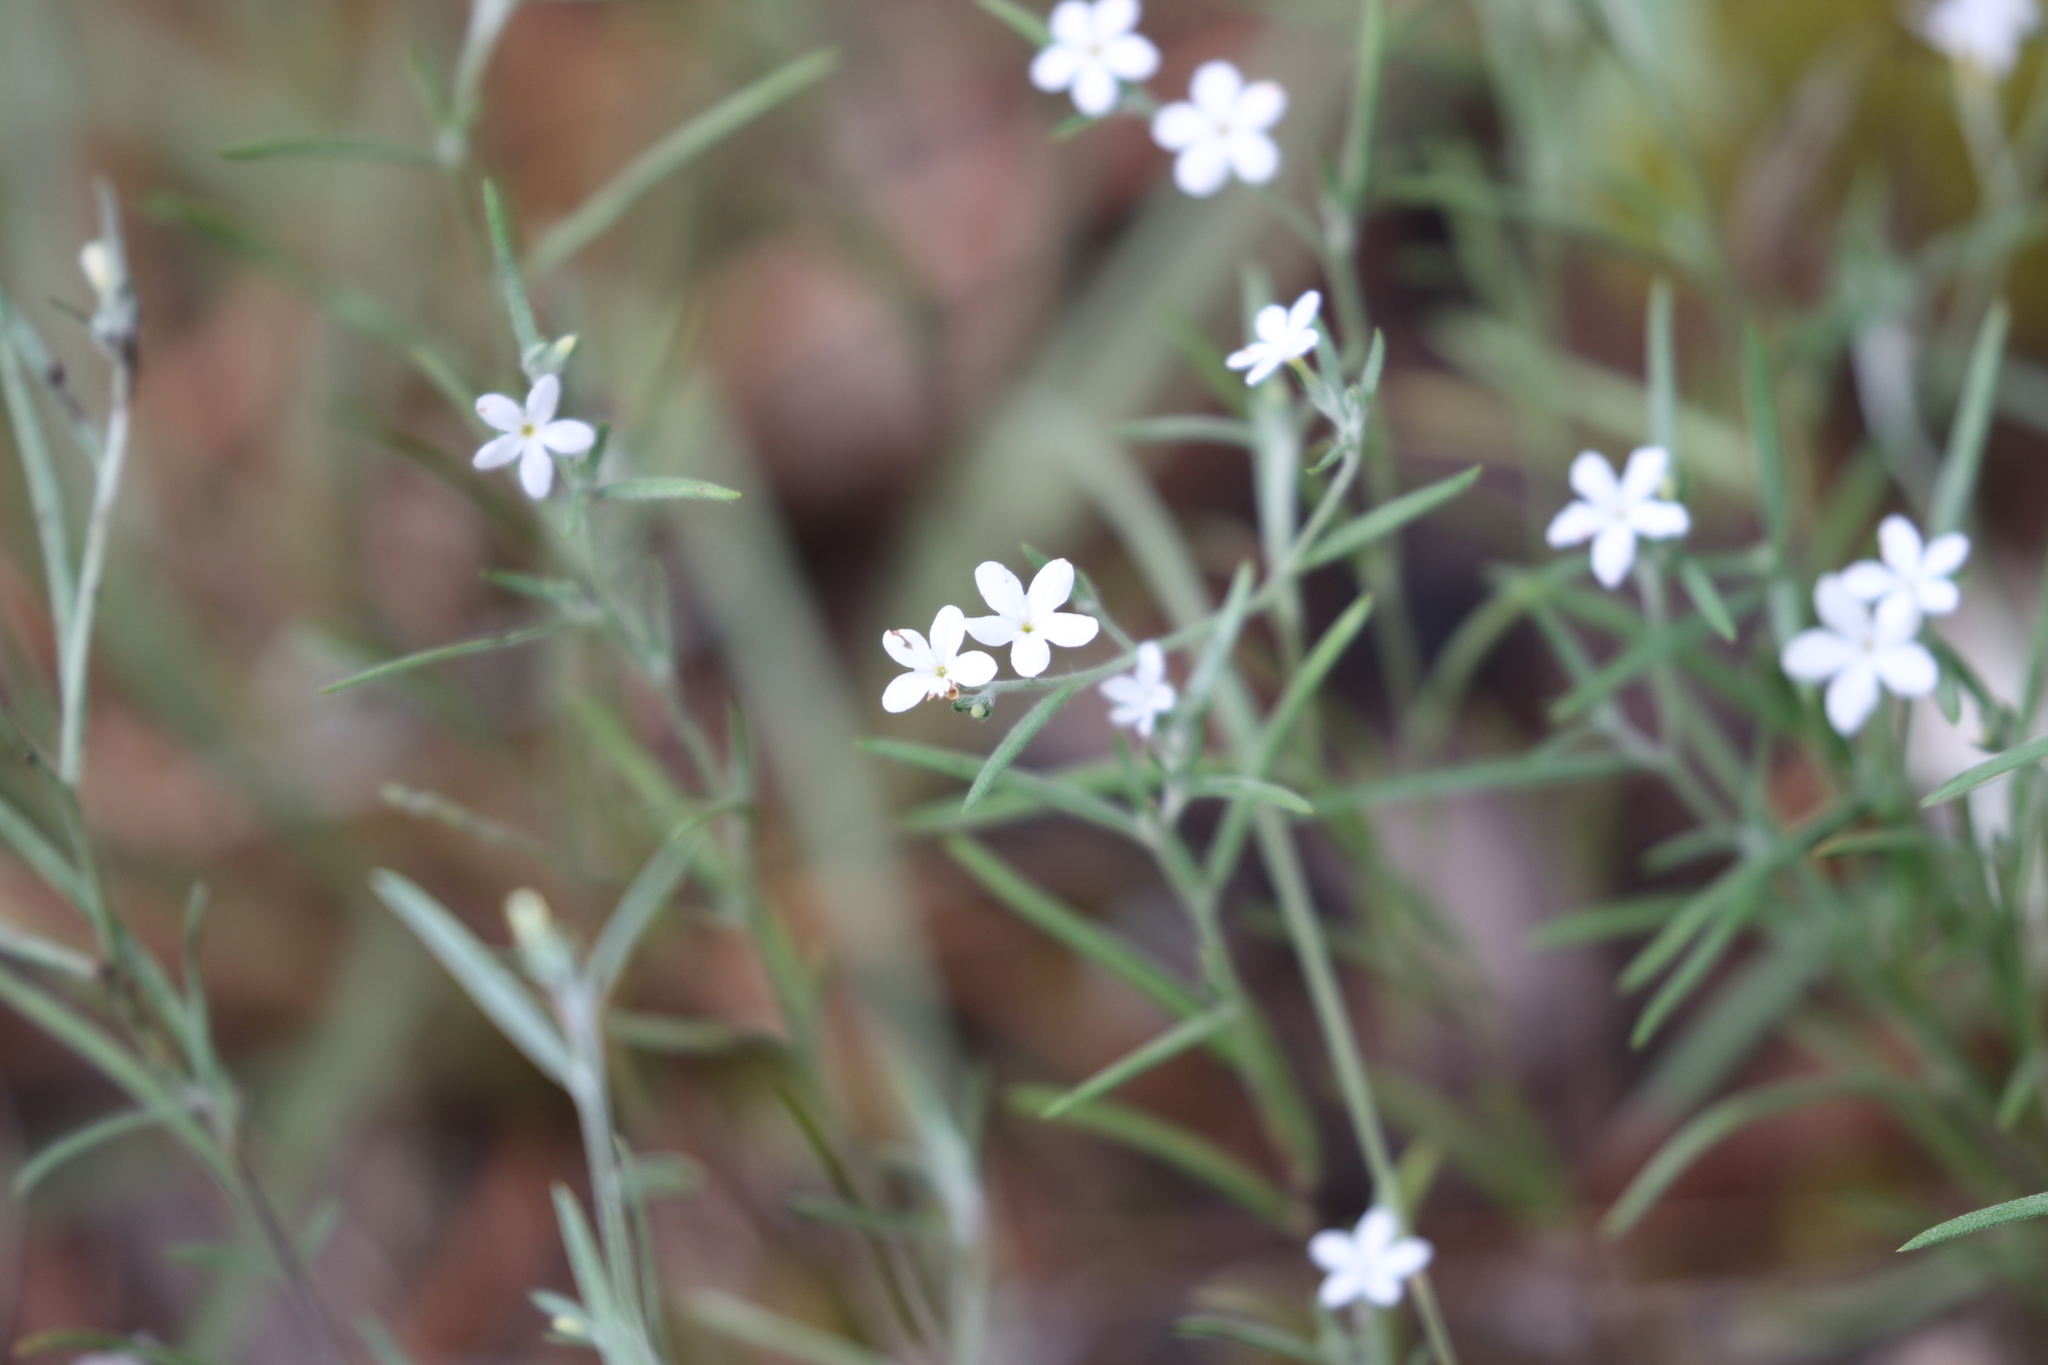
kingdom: Plantae
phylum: Tracheophyta
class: Magnoliopsida
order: Boraginales
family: Heliotropiaceae
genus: Euploca
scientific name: Euploca tenella
